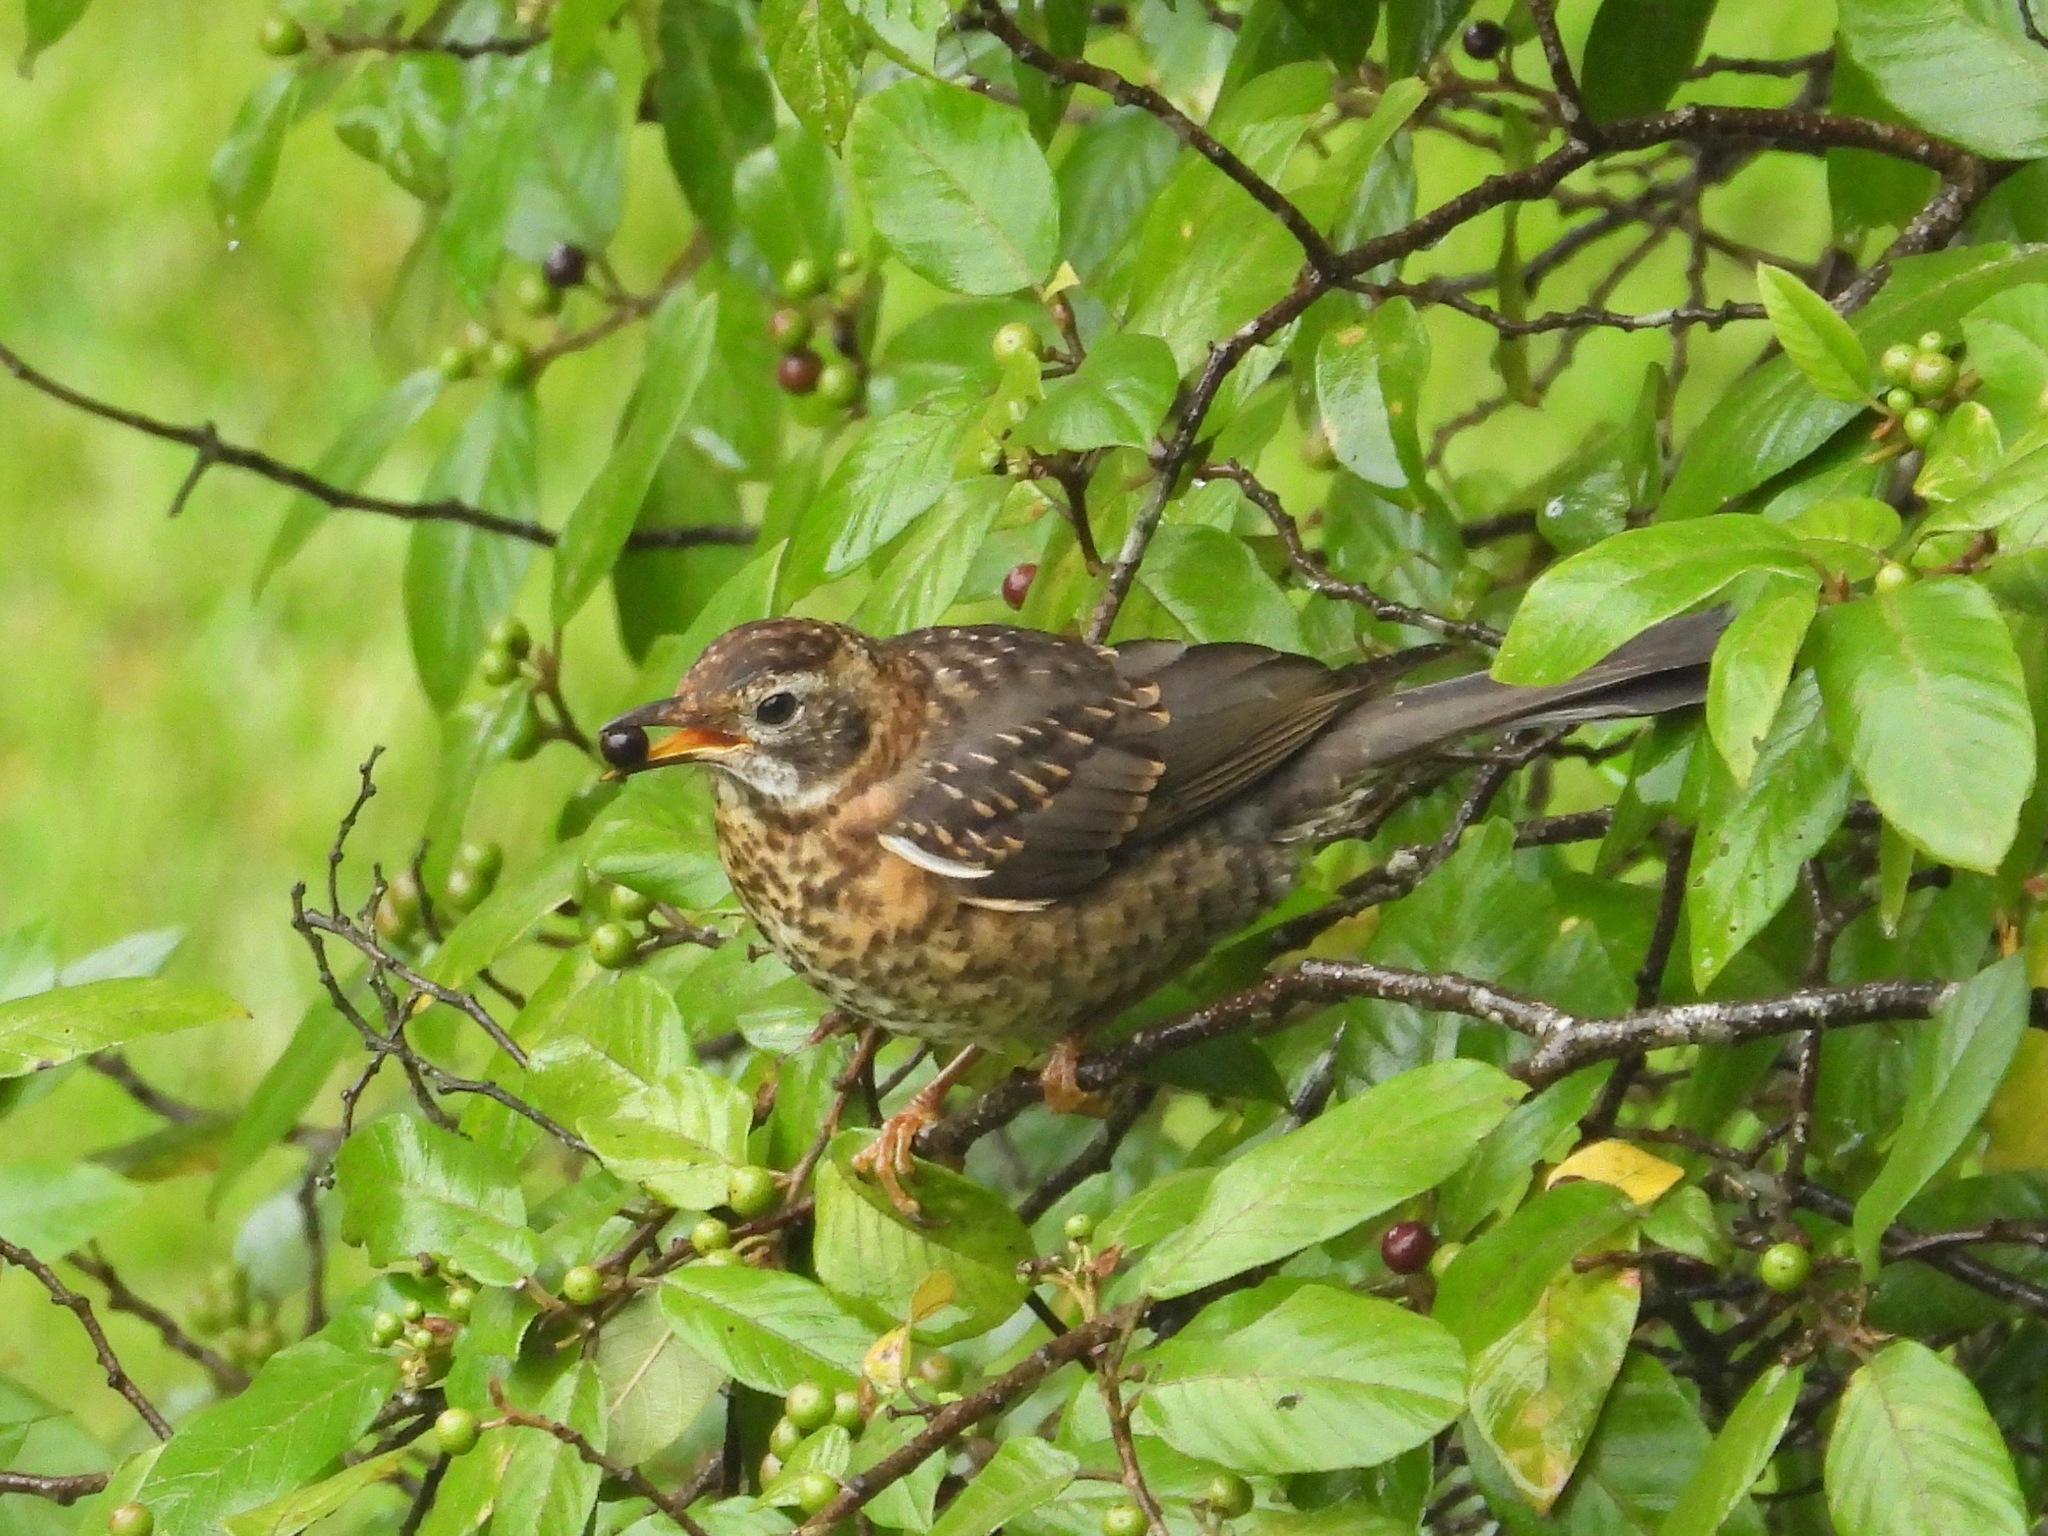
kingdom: Animalia
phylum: Chordata
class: Aves
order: Passeriformes
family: Turdidae
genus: Turdus
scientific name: Turdus rufitorques
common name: Rufous-collared thrush
